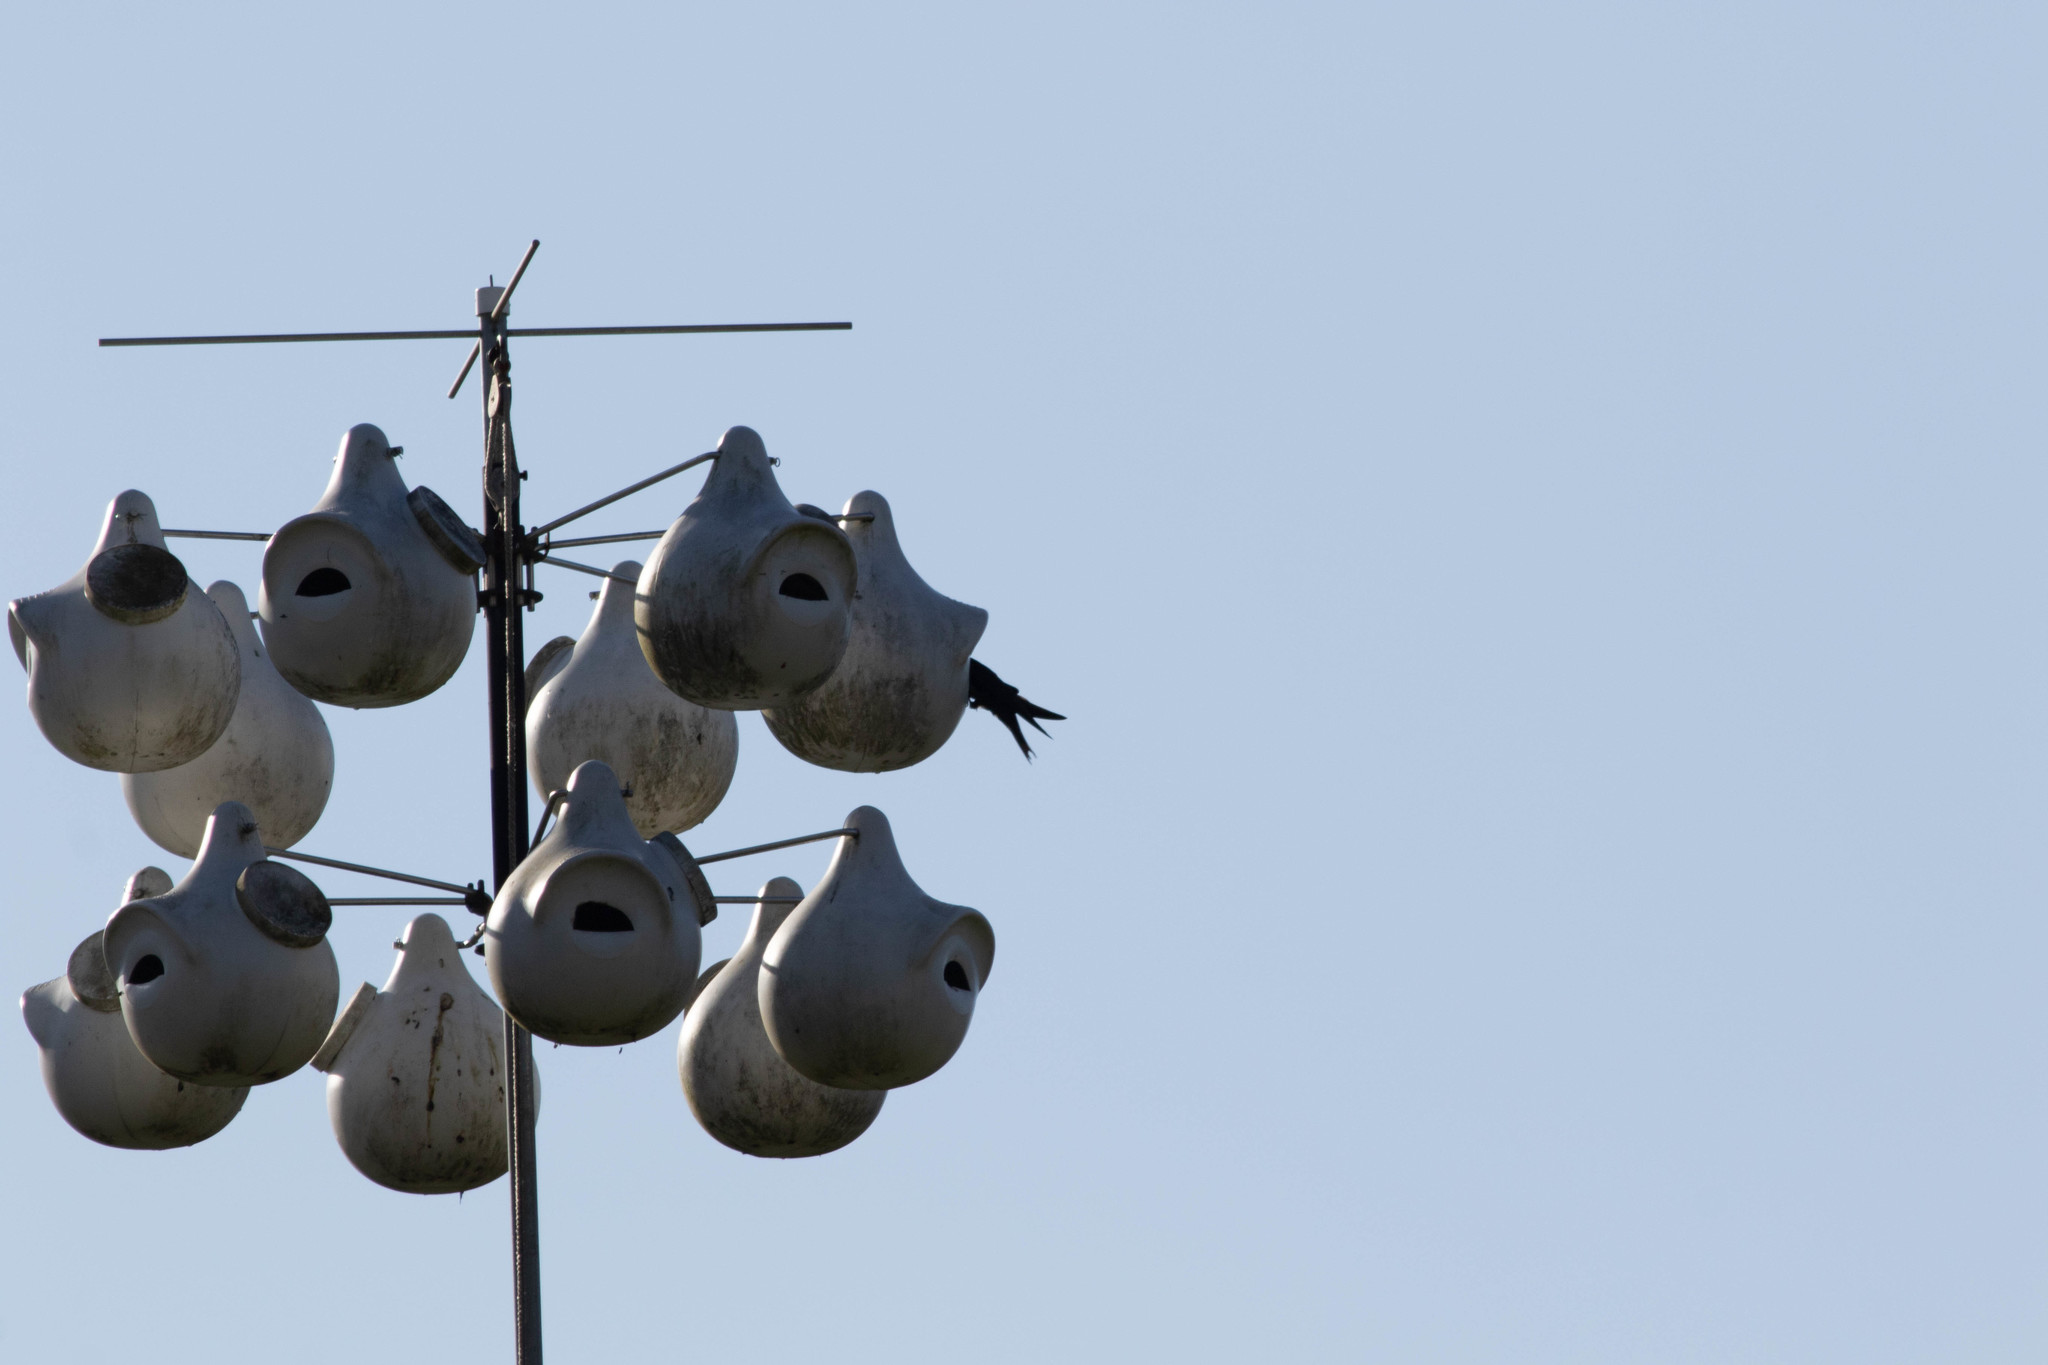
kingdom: Animalia
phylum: Chordata
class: Aves
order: Passeriformes
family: Hirundinidae
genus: Progne
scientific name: Progne subis
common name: Purple martin
